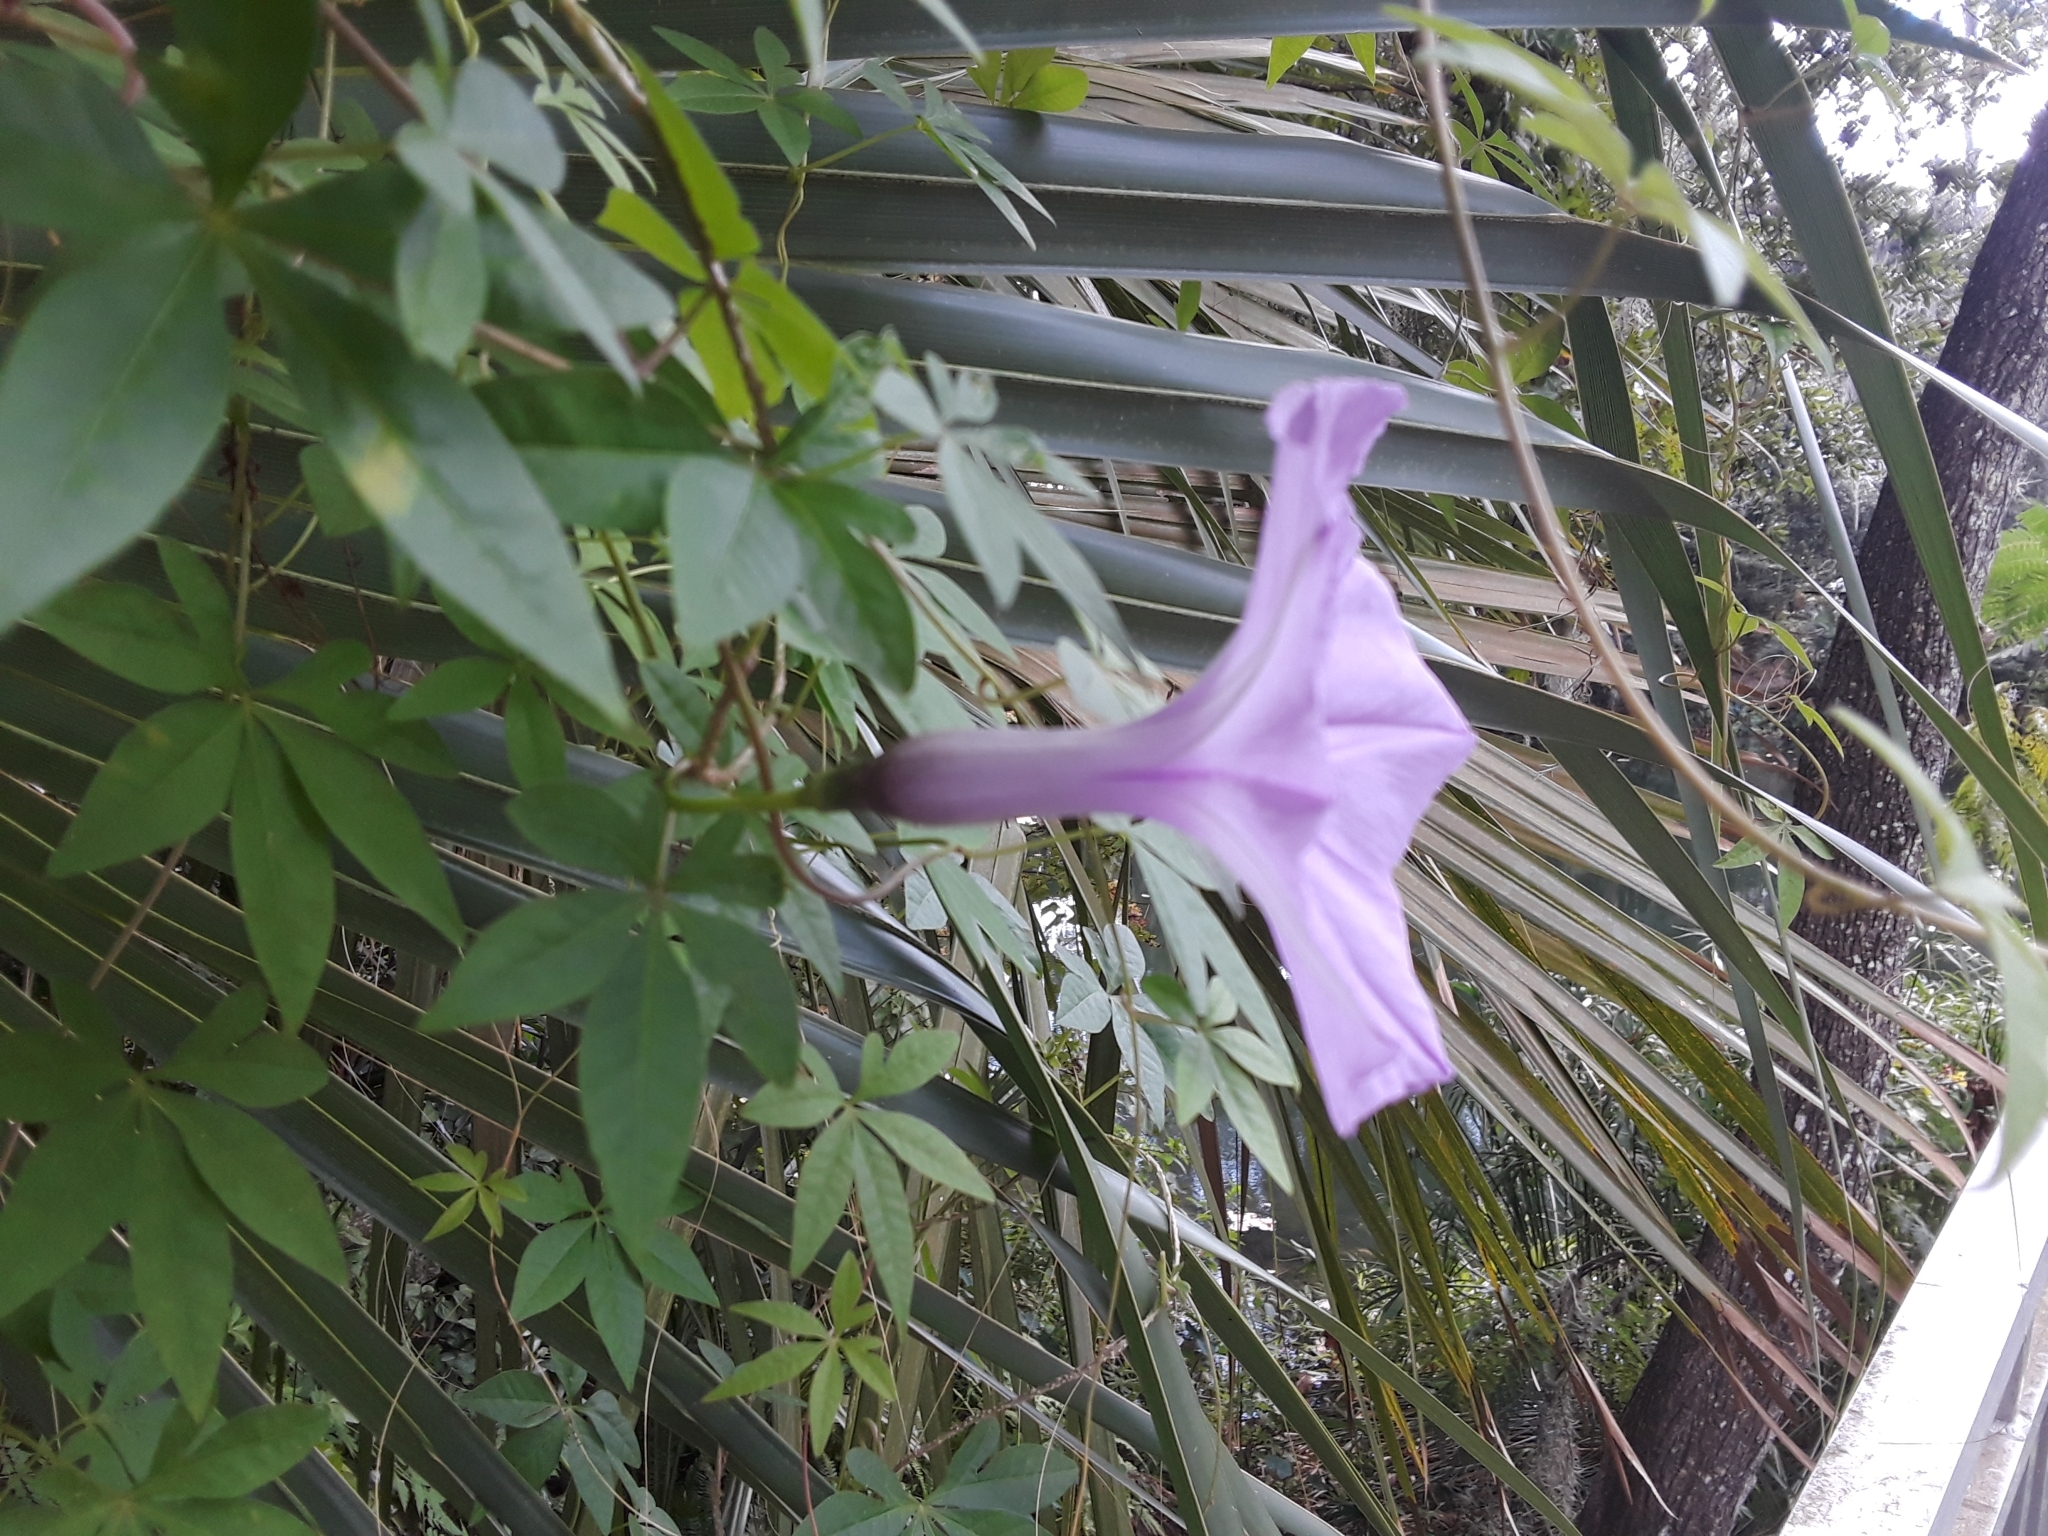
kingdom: Plantae
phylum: Tracheophyta
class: Magnoliopsida
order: Solanales
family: Convolvulaceae
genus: Ipomoea
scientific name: Ipomoea cairica
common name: Mile a minute vine
